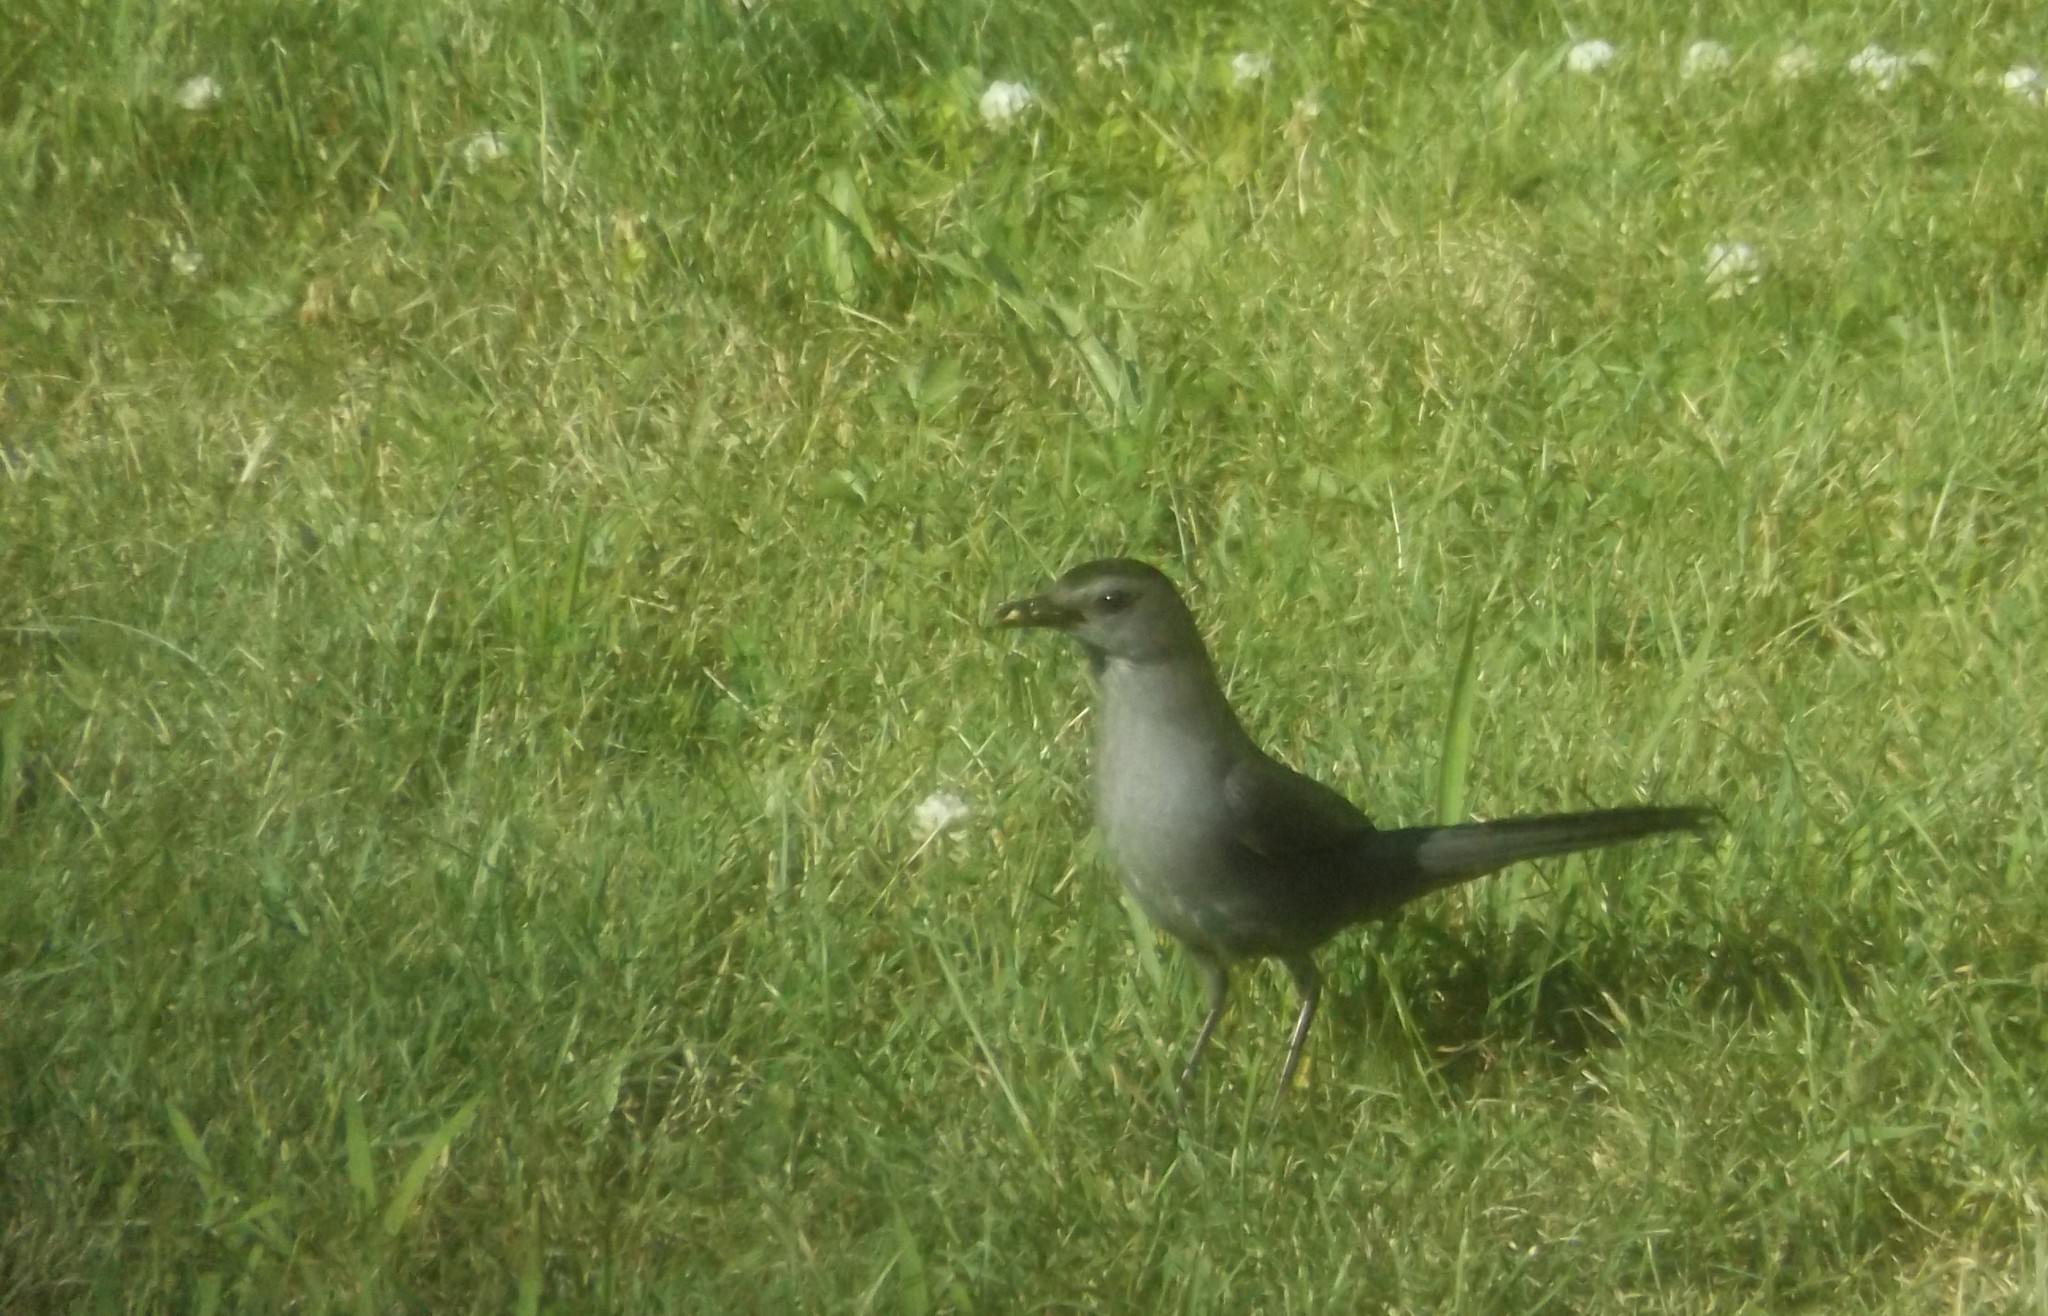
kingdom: Animalia
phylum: Chordata
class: Aves
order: Passeriformes
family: Mimidae
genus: Dumetella
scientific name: Dumetella carolinensis
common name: Gray catbird
